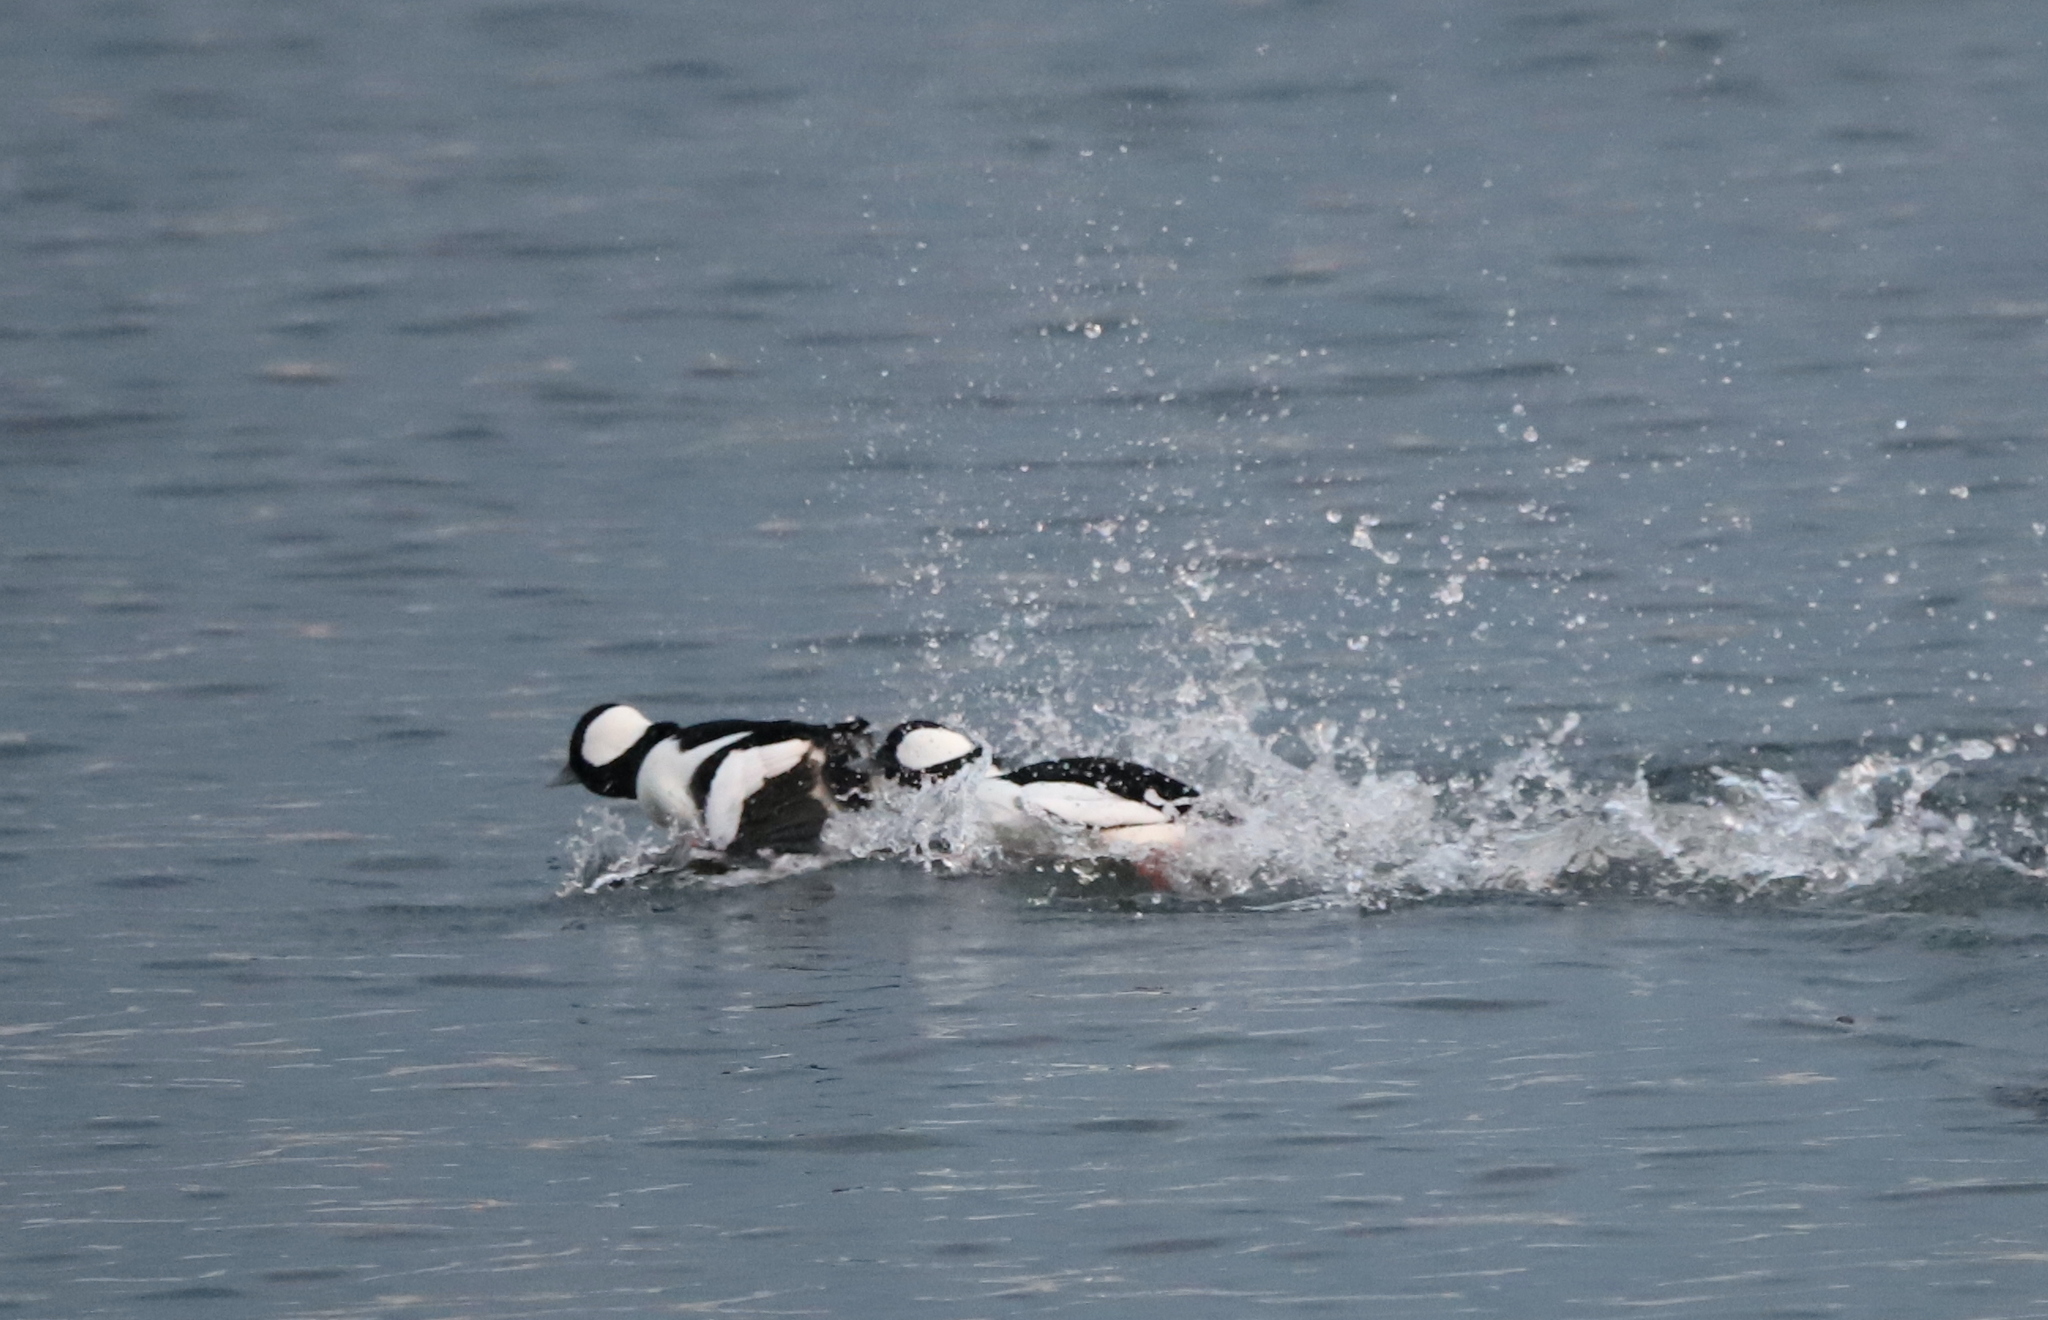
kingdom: Animalia
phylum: Chordata
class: Aves
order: Anseriformes
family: Anatidae
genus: Bucephala
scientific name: Bucephala albeola
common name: Bufflehead
